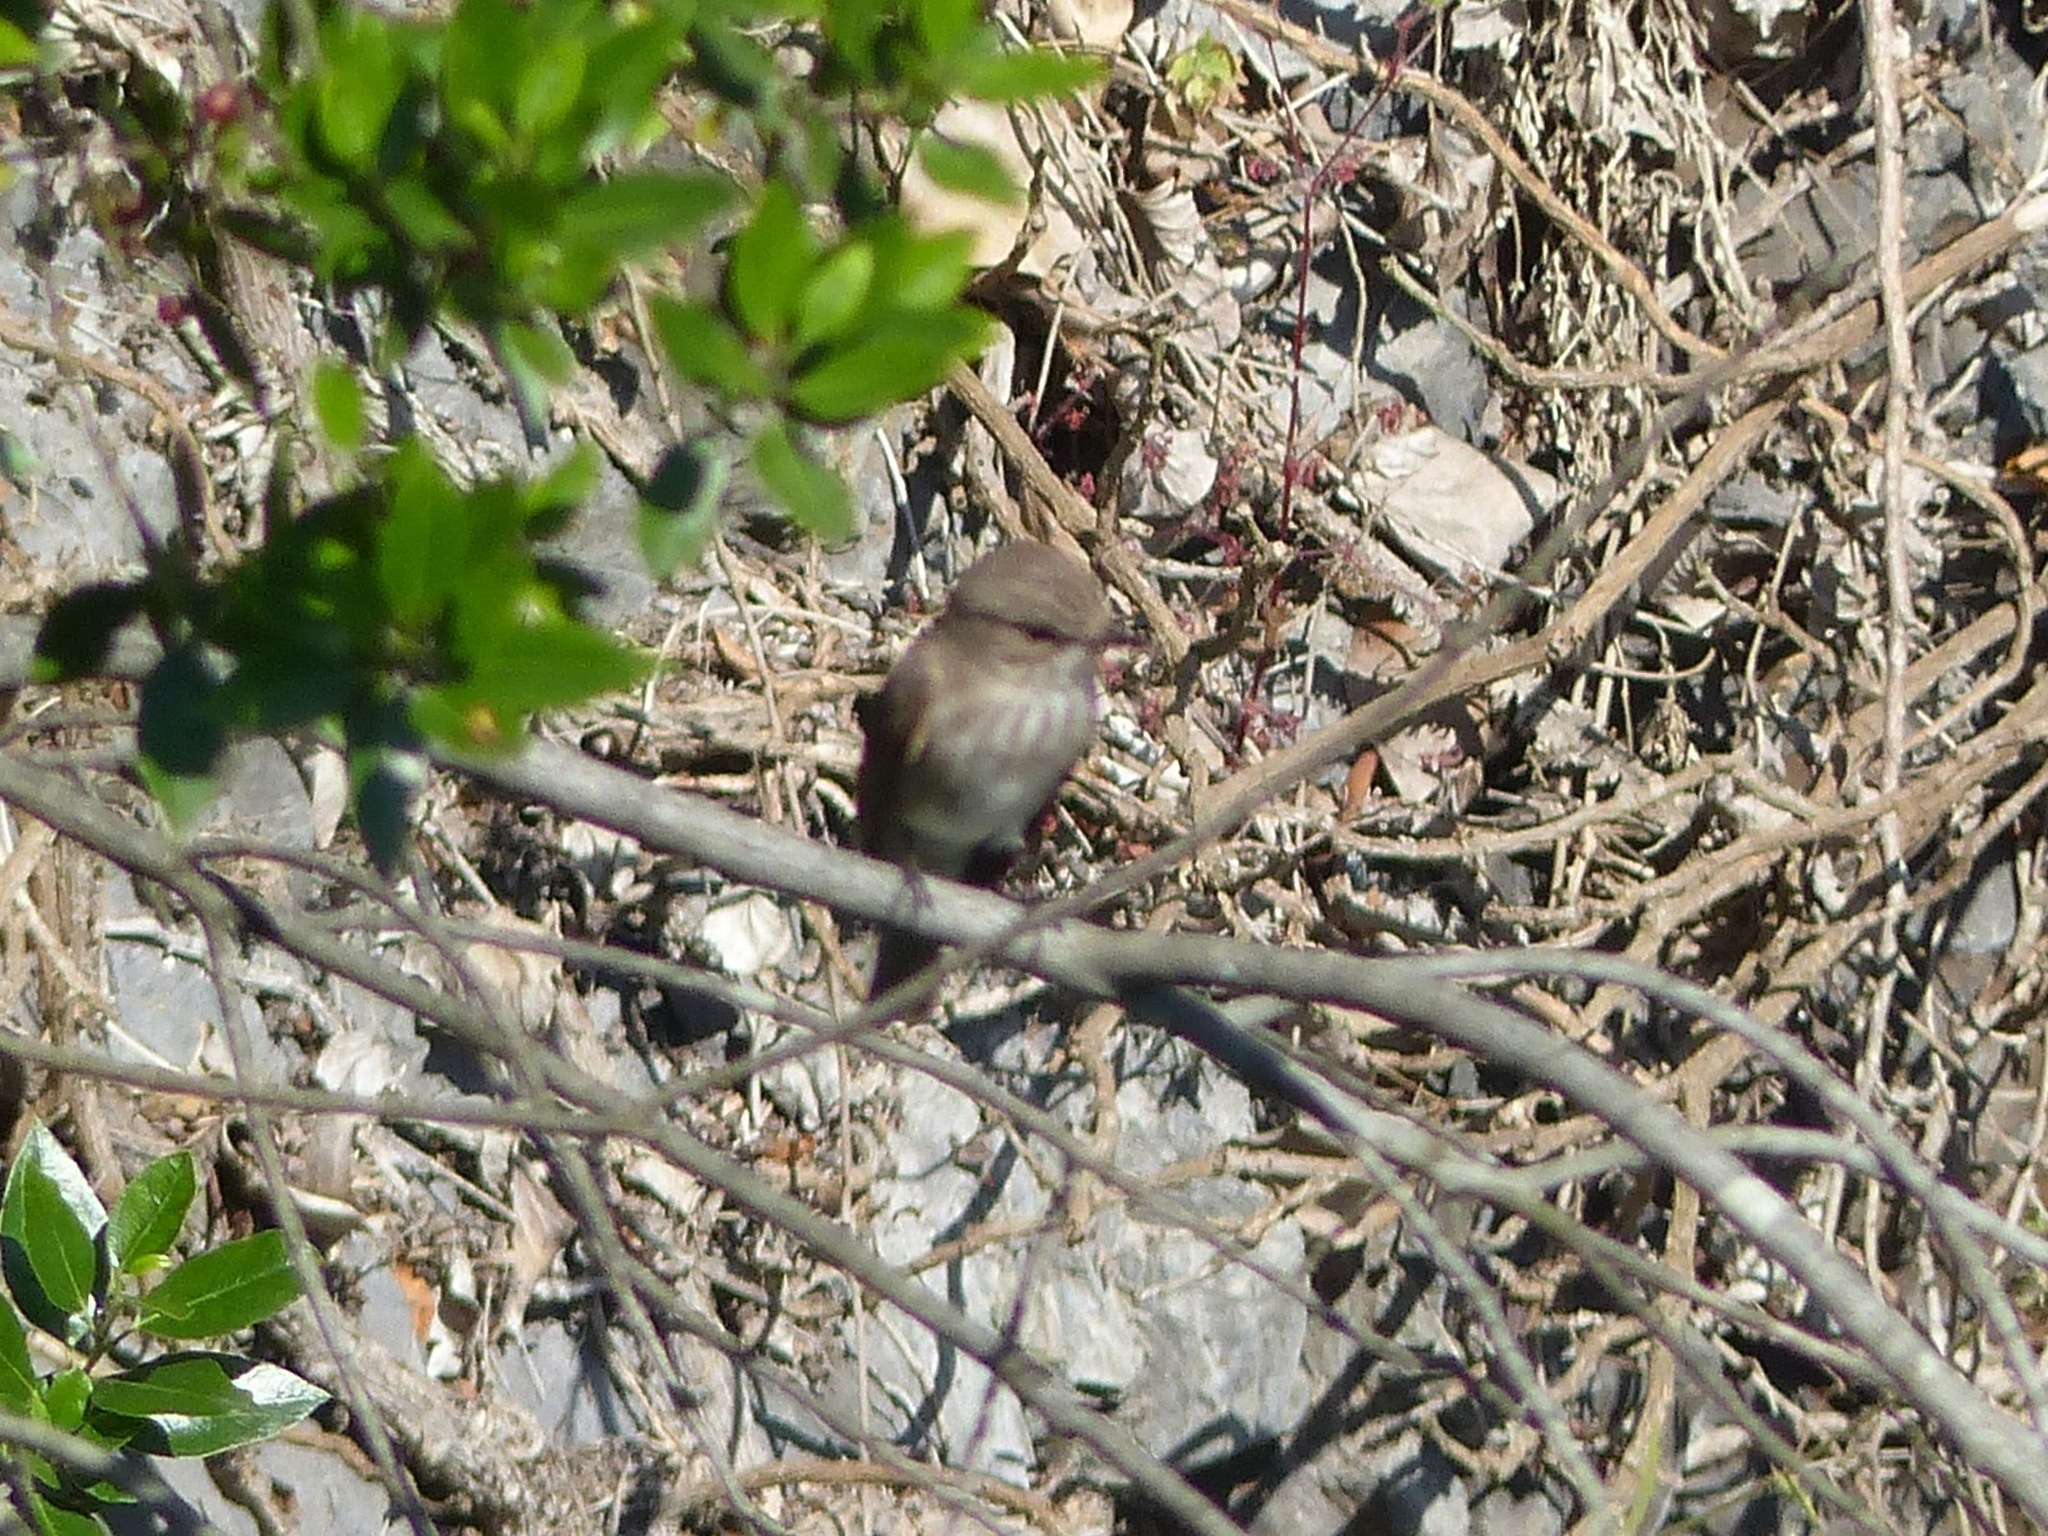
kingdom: Animalia
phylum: Chordata
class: Aves
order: Passeriformes
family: Muscicapidae
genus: Muscicapa
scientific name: Muscicapa striata
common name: Spotted flycatcher
